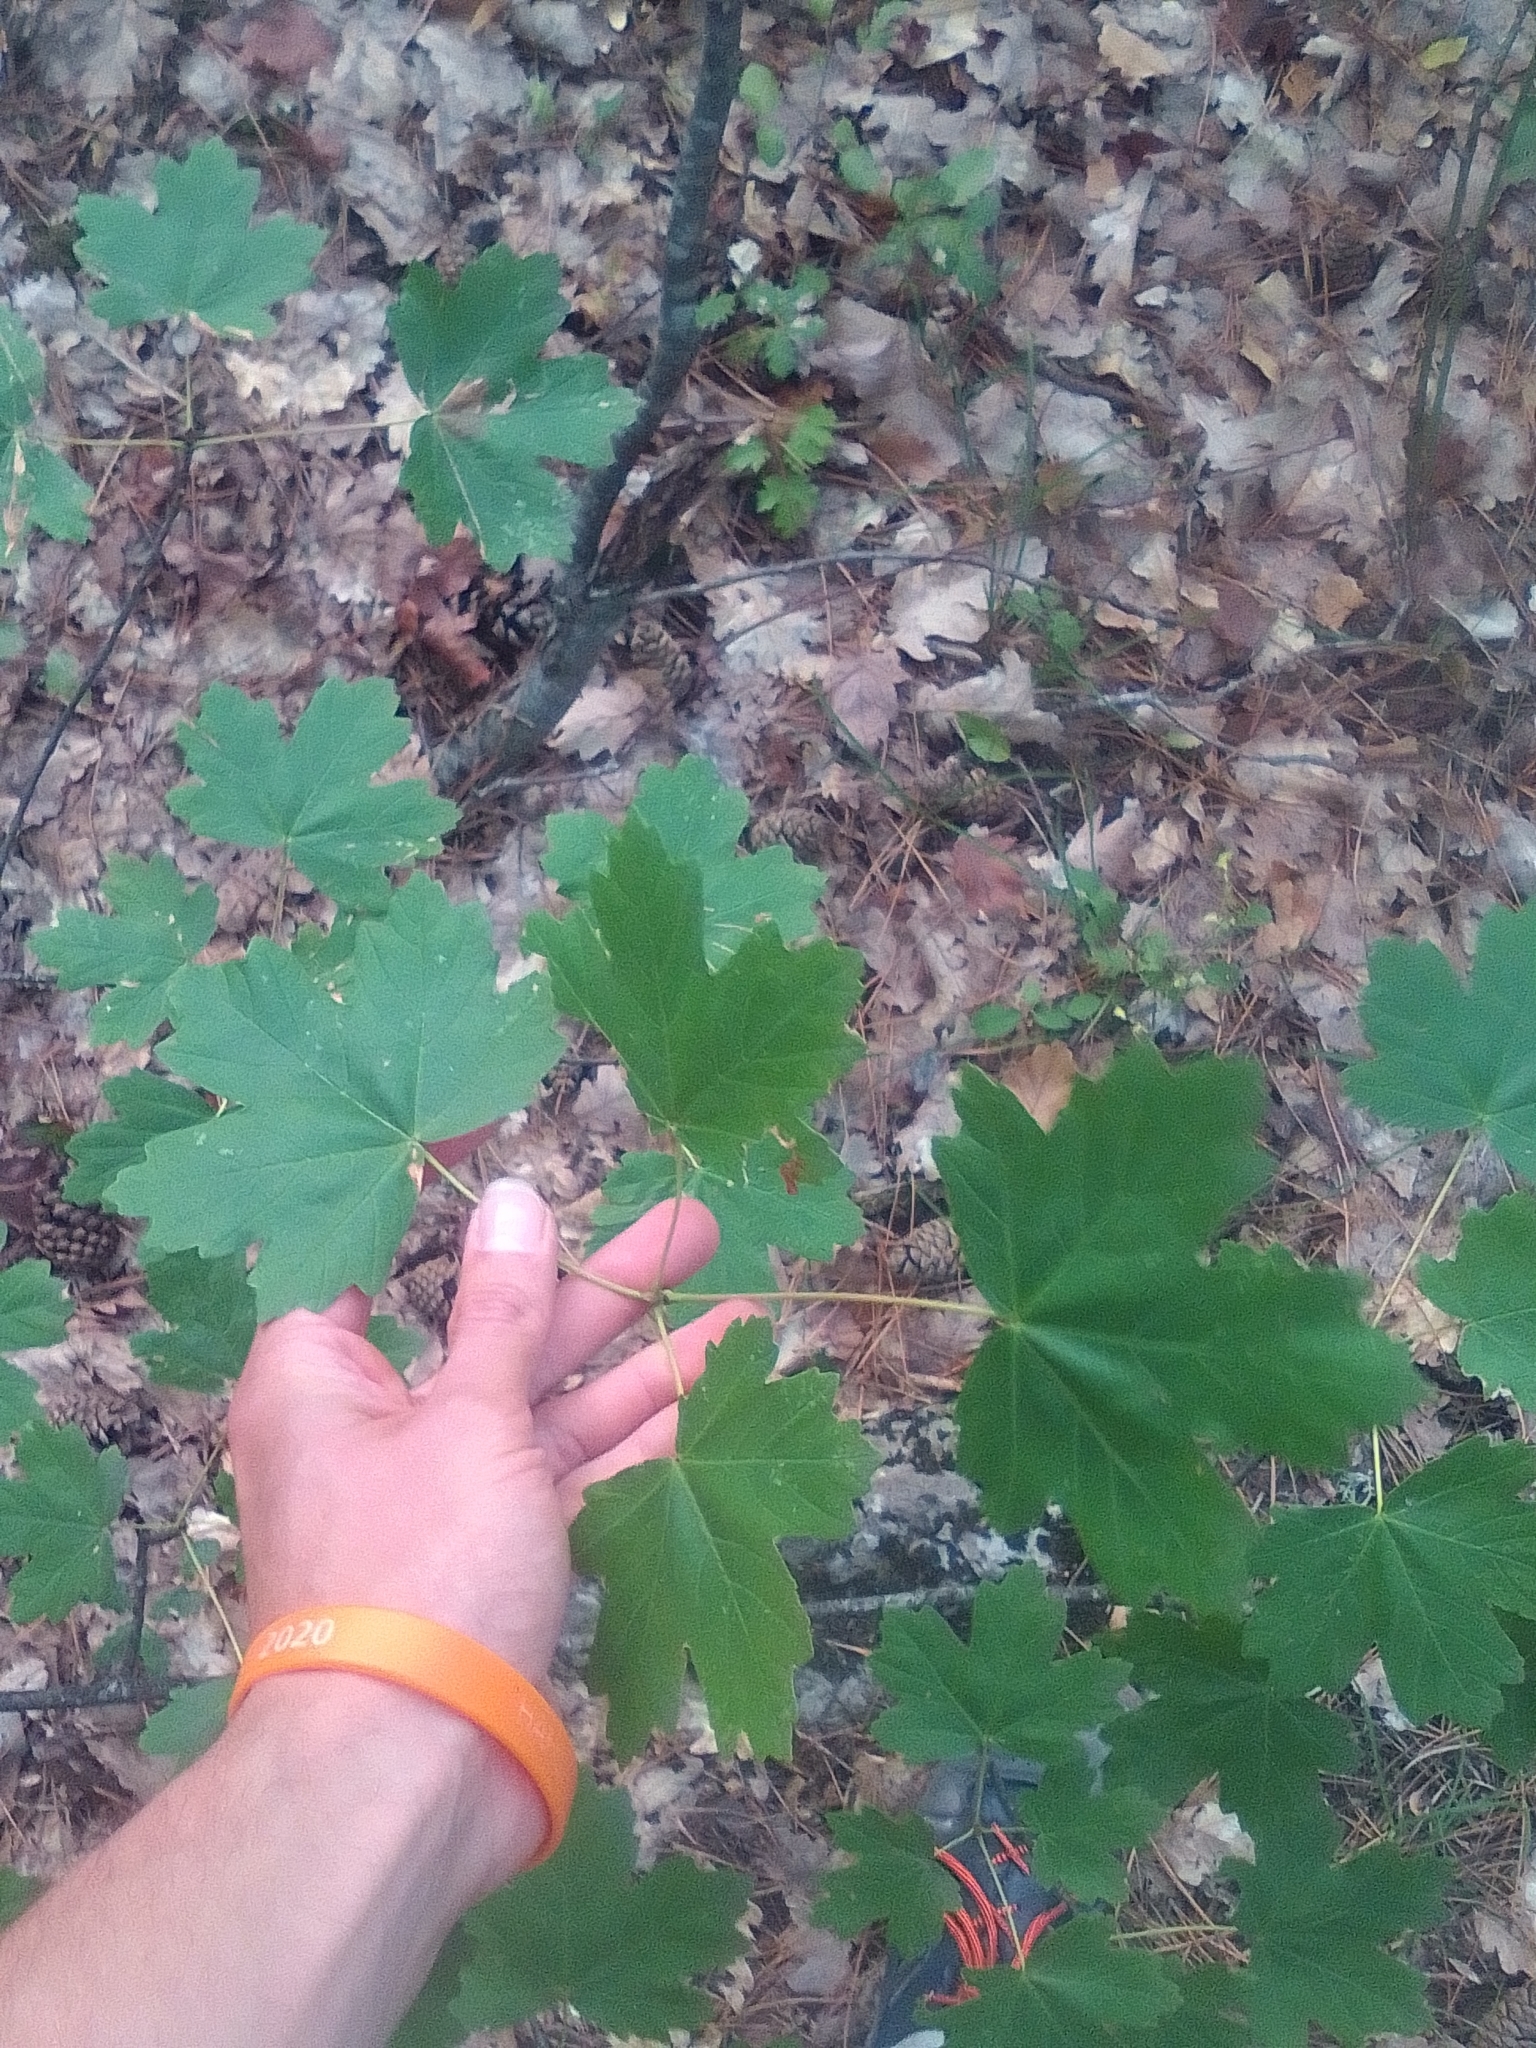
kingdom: Plantae
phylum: Tracheophyta
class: Magnoliopsida
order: Sapindales
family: Sapindaceae
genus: Acer
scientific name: Acer campestre
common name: Field maple
